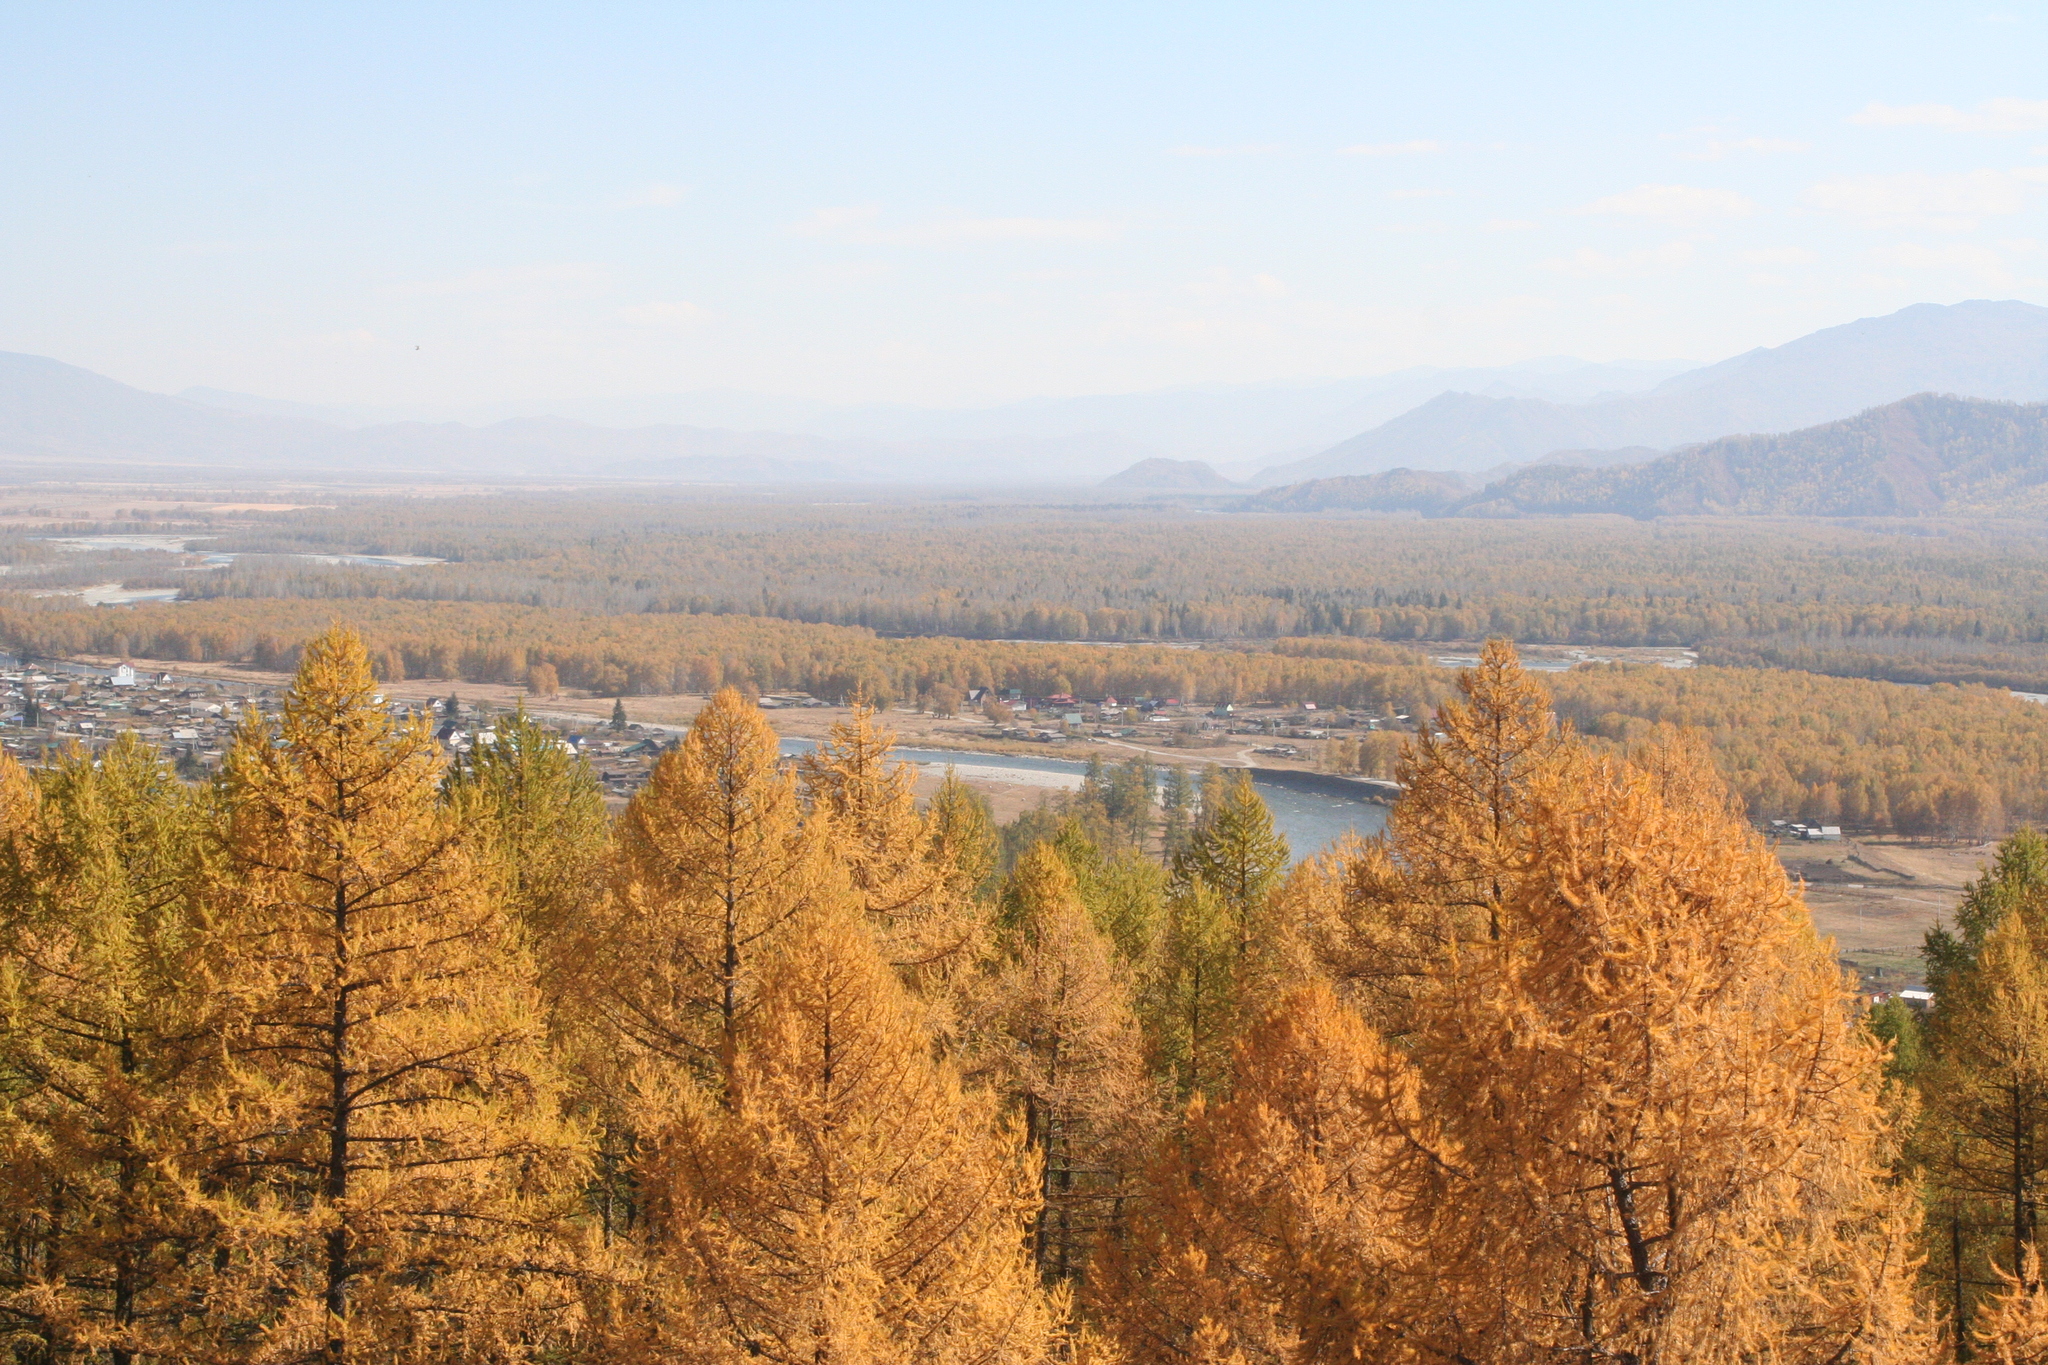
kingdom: Plantae
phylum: Tracheophyta
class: Pinopsida
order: Pinales
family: Pinaceae
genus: Larix
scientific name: Larix sibirica
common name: Siberian larch
